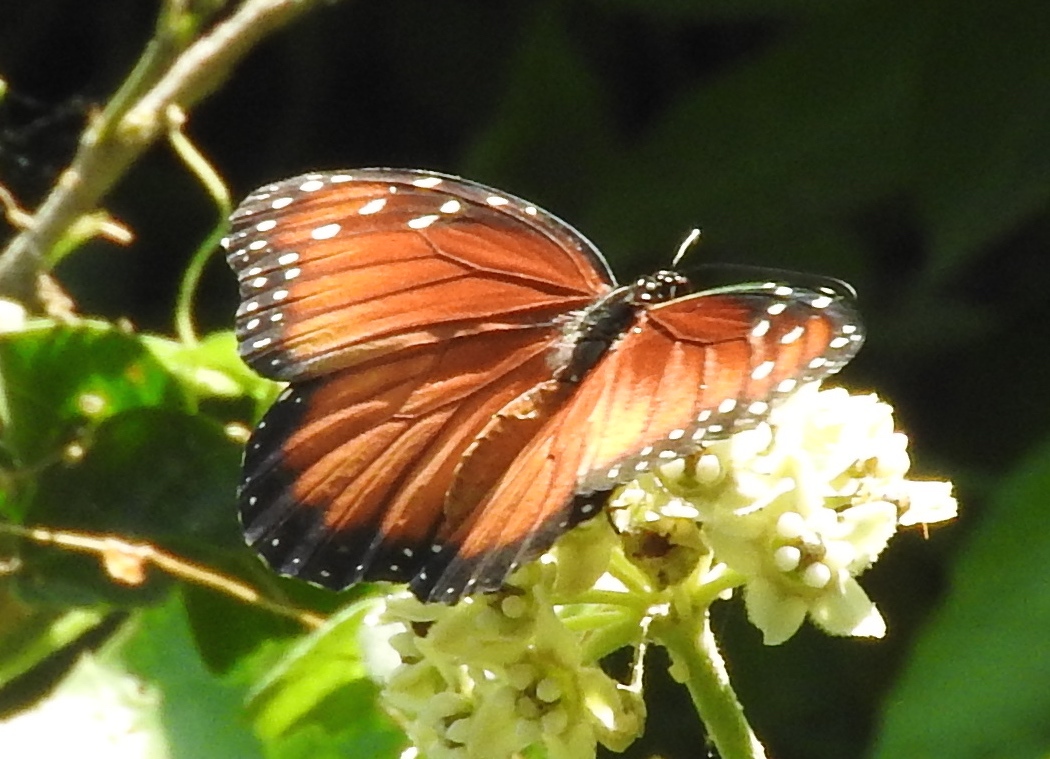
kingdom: Animalia
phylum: Arthropoda
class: Insecta
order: Lepidoptera
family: Nymphalidae
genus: Danaus
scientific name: Danaus eresimus
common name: Soldier
